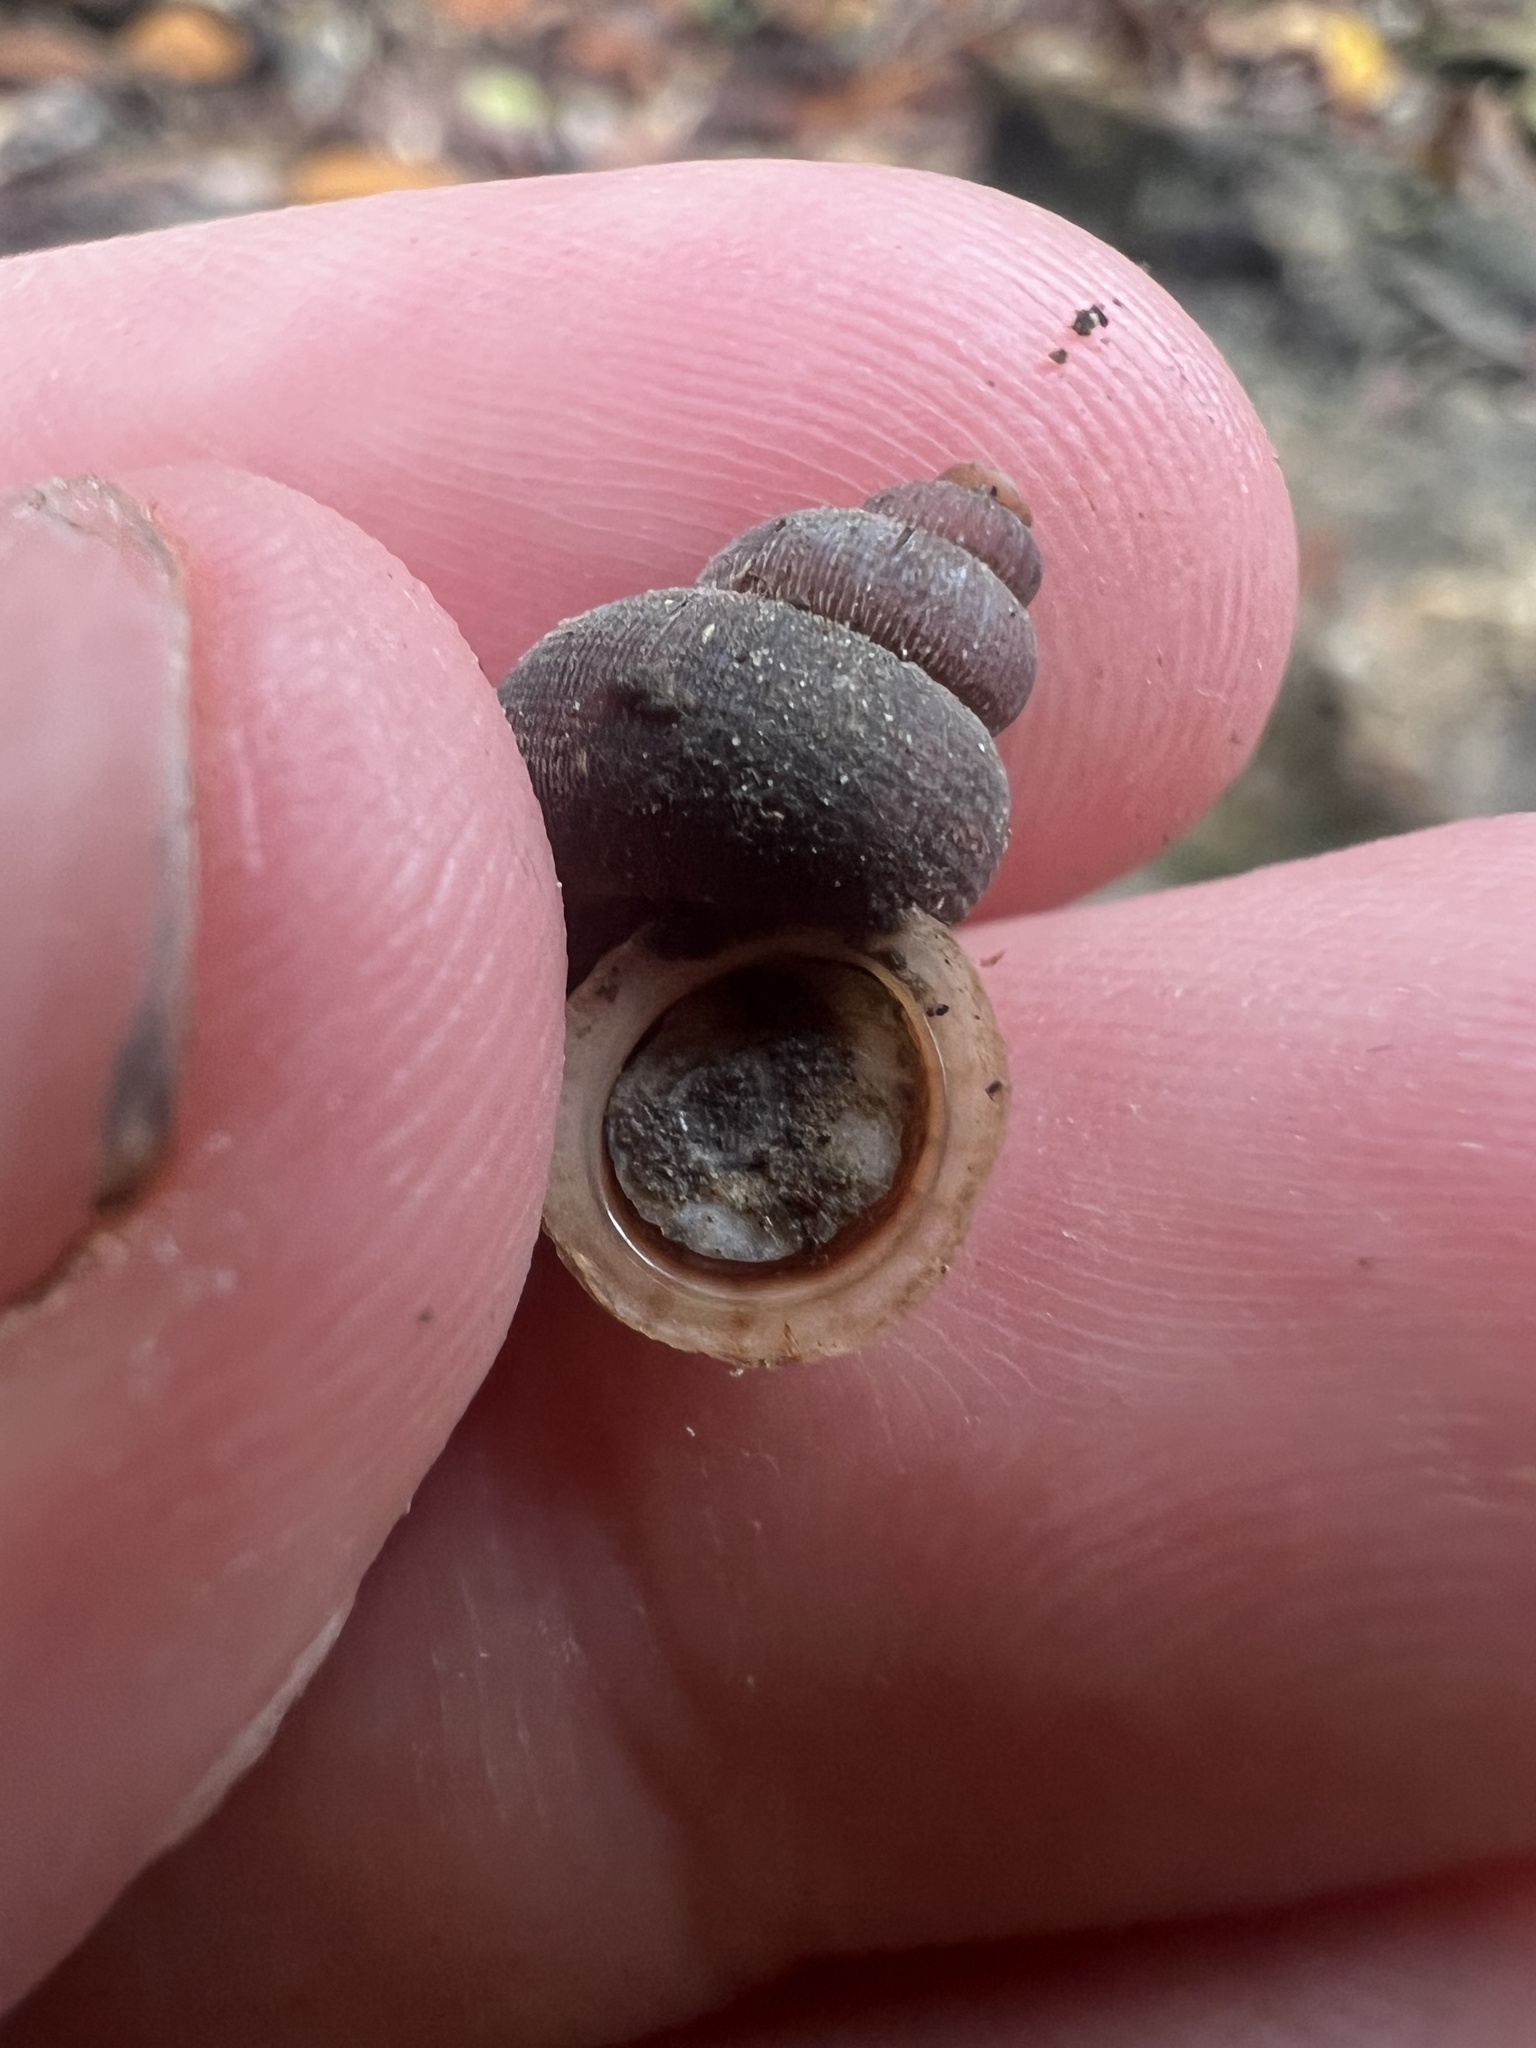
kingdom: Animalia
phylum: Mollusca
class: Gastropoda
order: Littorinimorpha
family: Annulariidae
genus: Tudorisca
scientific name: Tudorisca rosenbergiana
